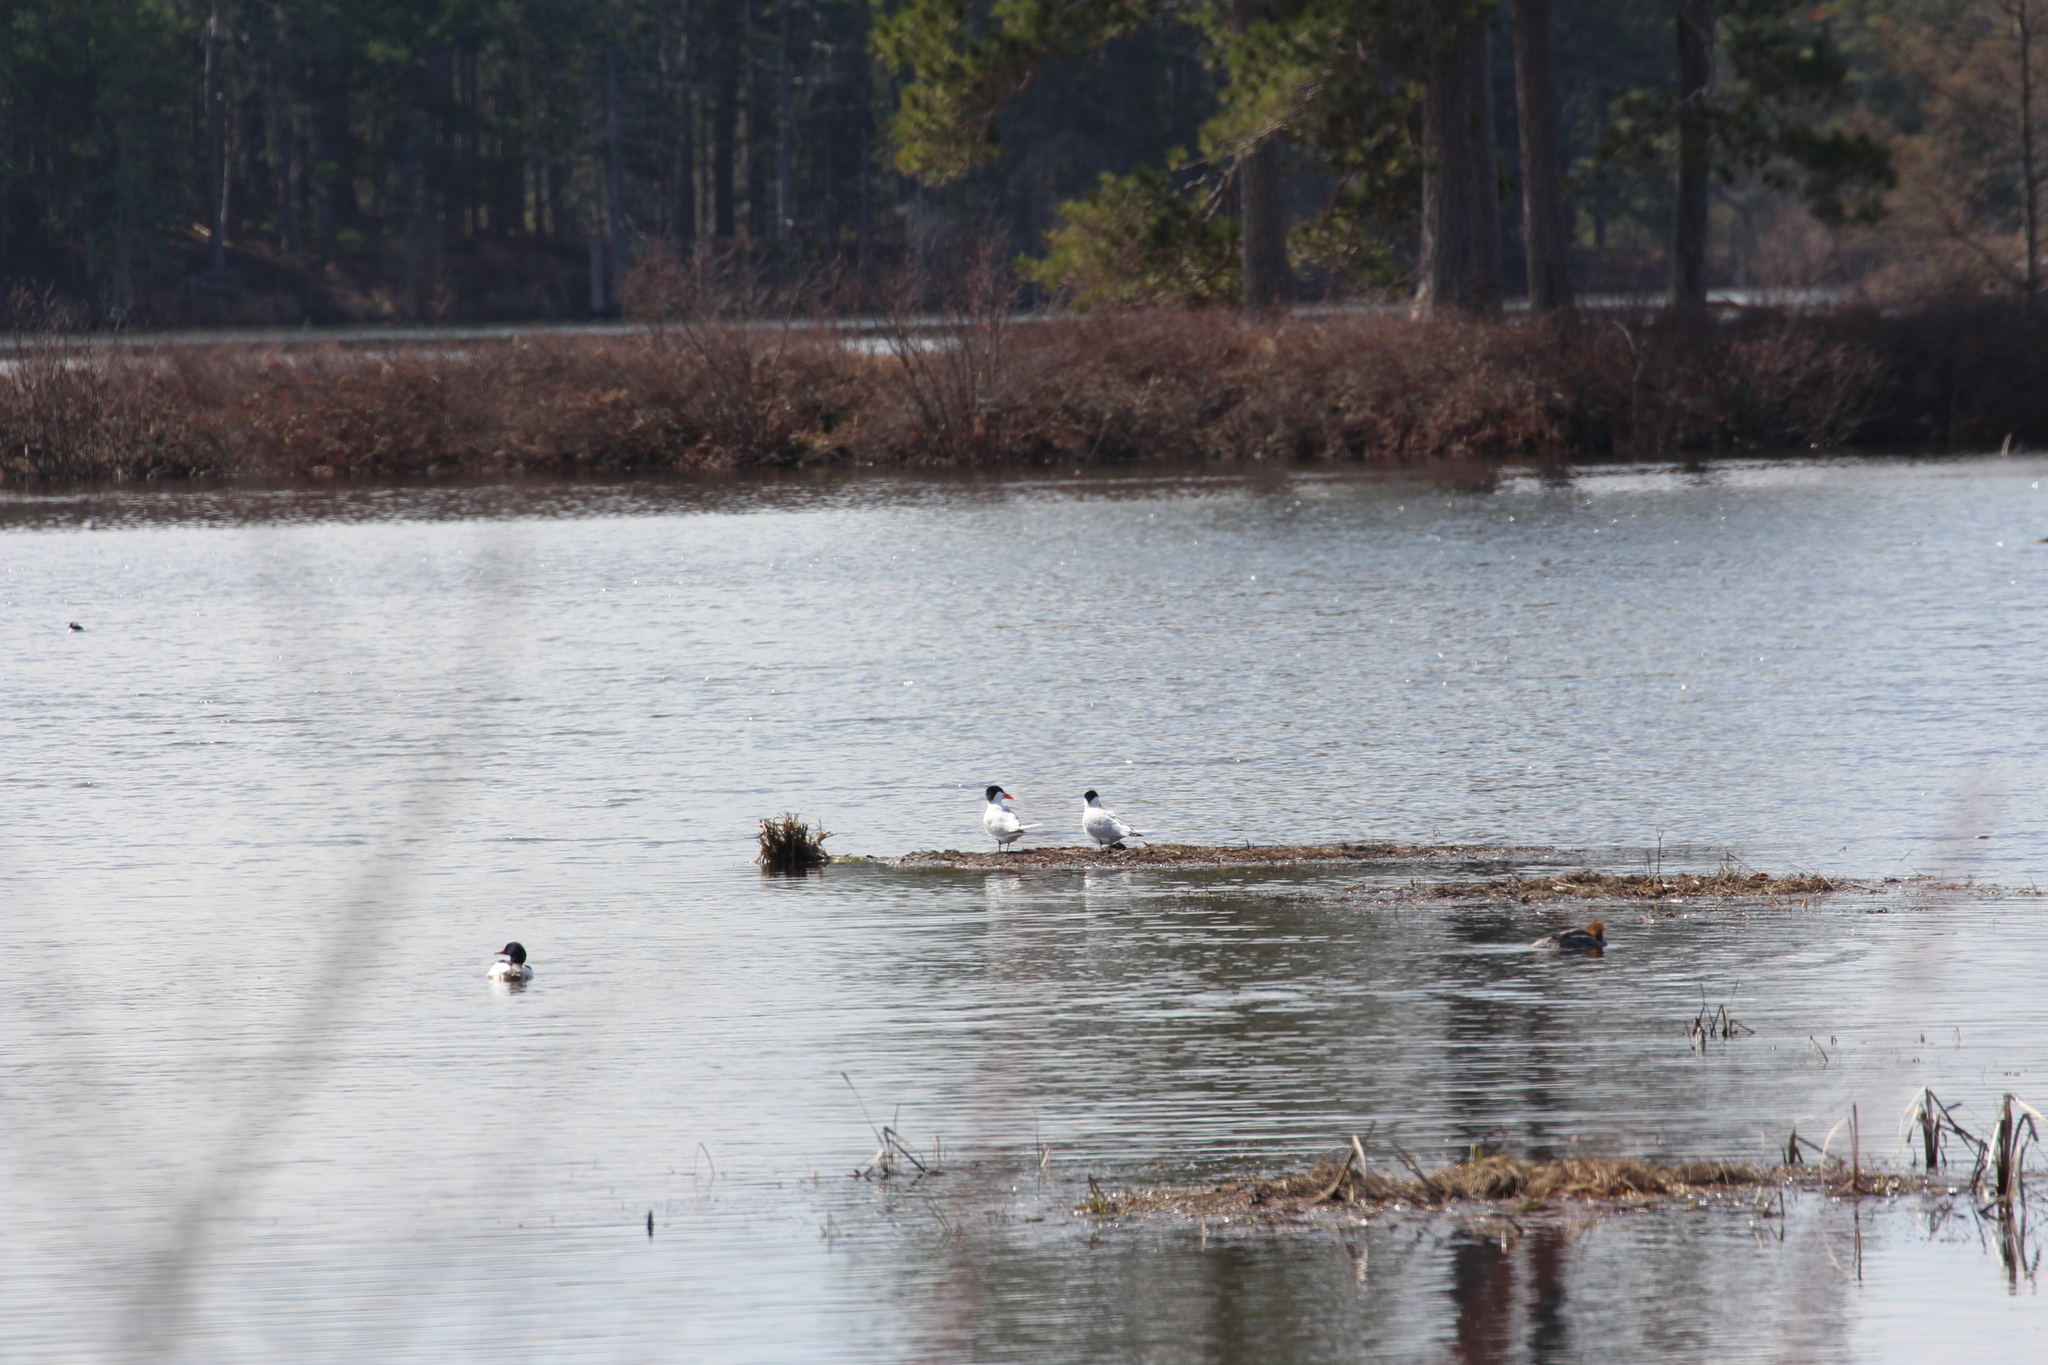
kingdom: Animalia
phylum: Chordata
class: Aves
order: Charadriiformes
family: Laridae
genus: Hydroprogne
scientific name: Hydroprogne caspia
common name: Caspian tern
